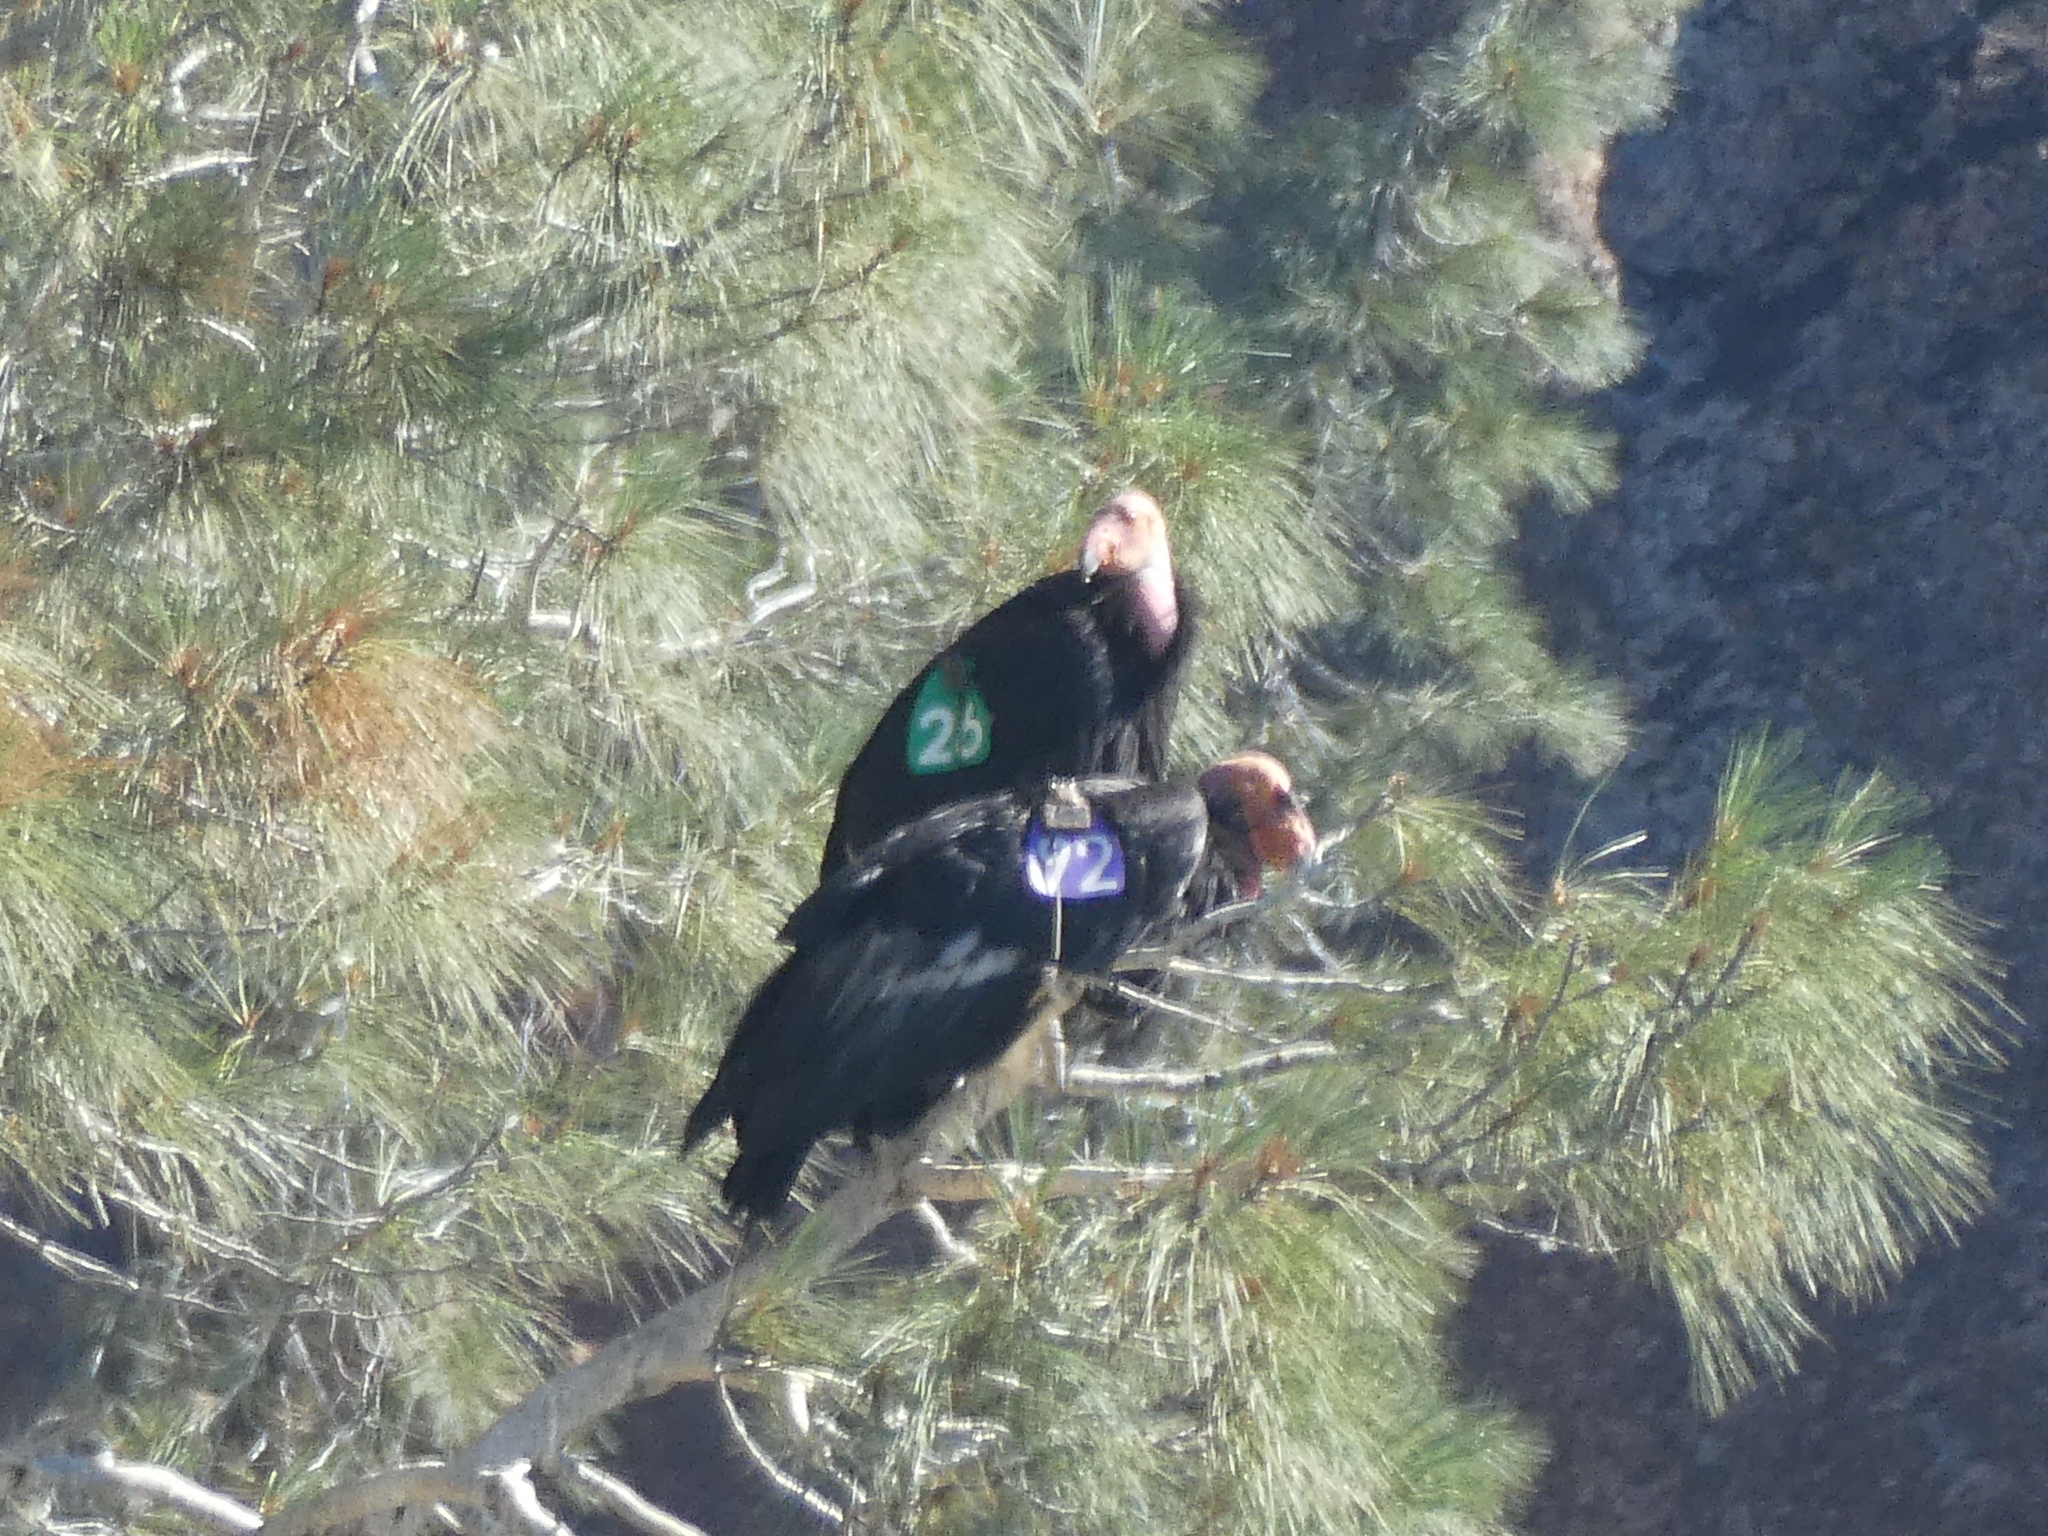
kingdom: Animalia
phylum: Chordata
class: Aves
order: Accipitriformes
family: Cathartidae
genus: Gymnogyps
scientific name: Gymnogyps californianus
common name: California condor
